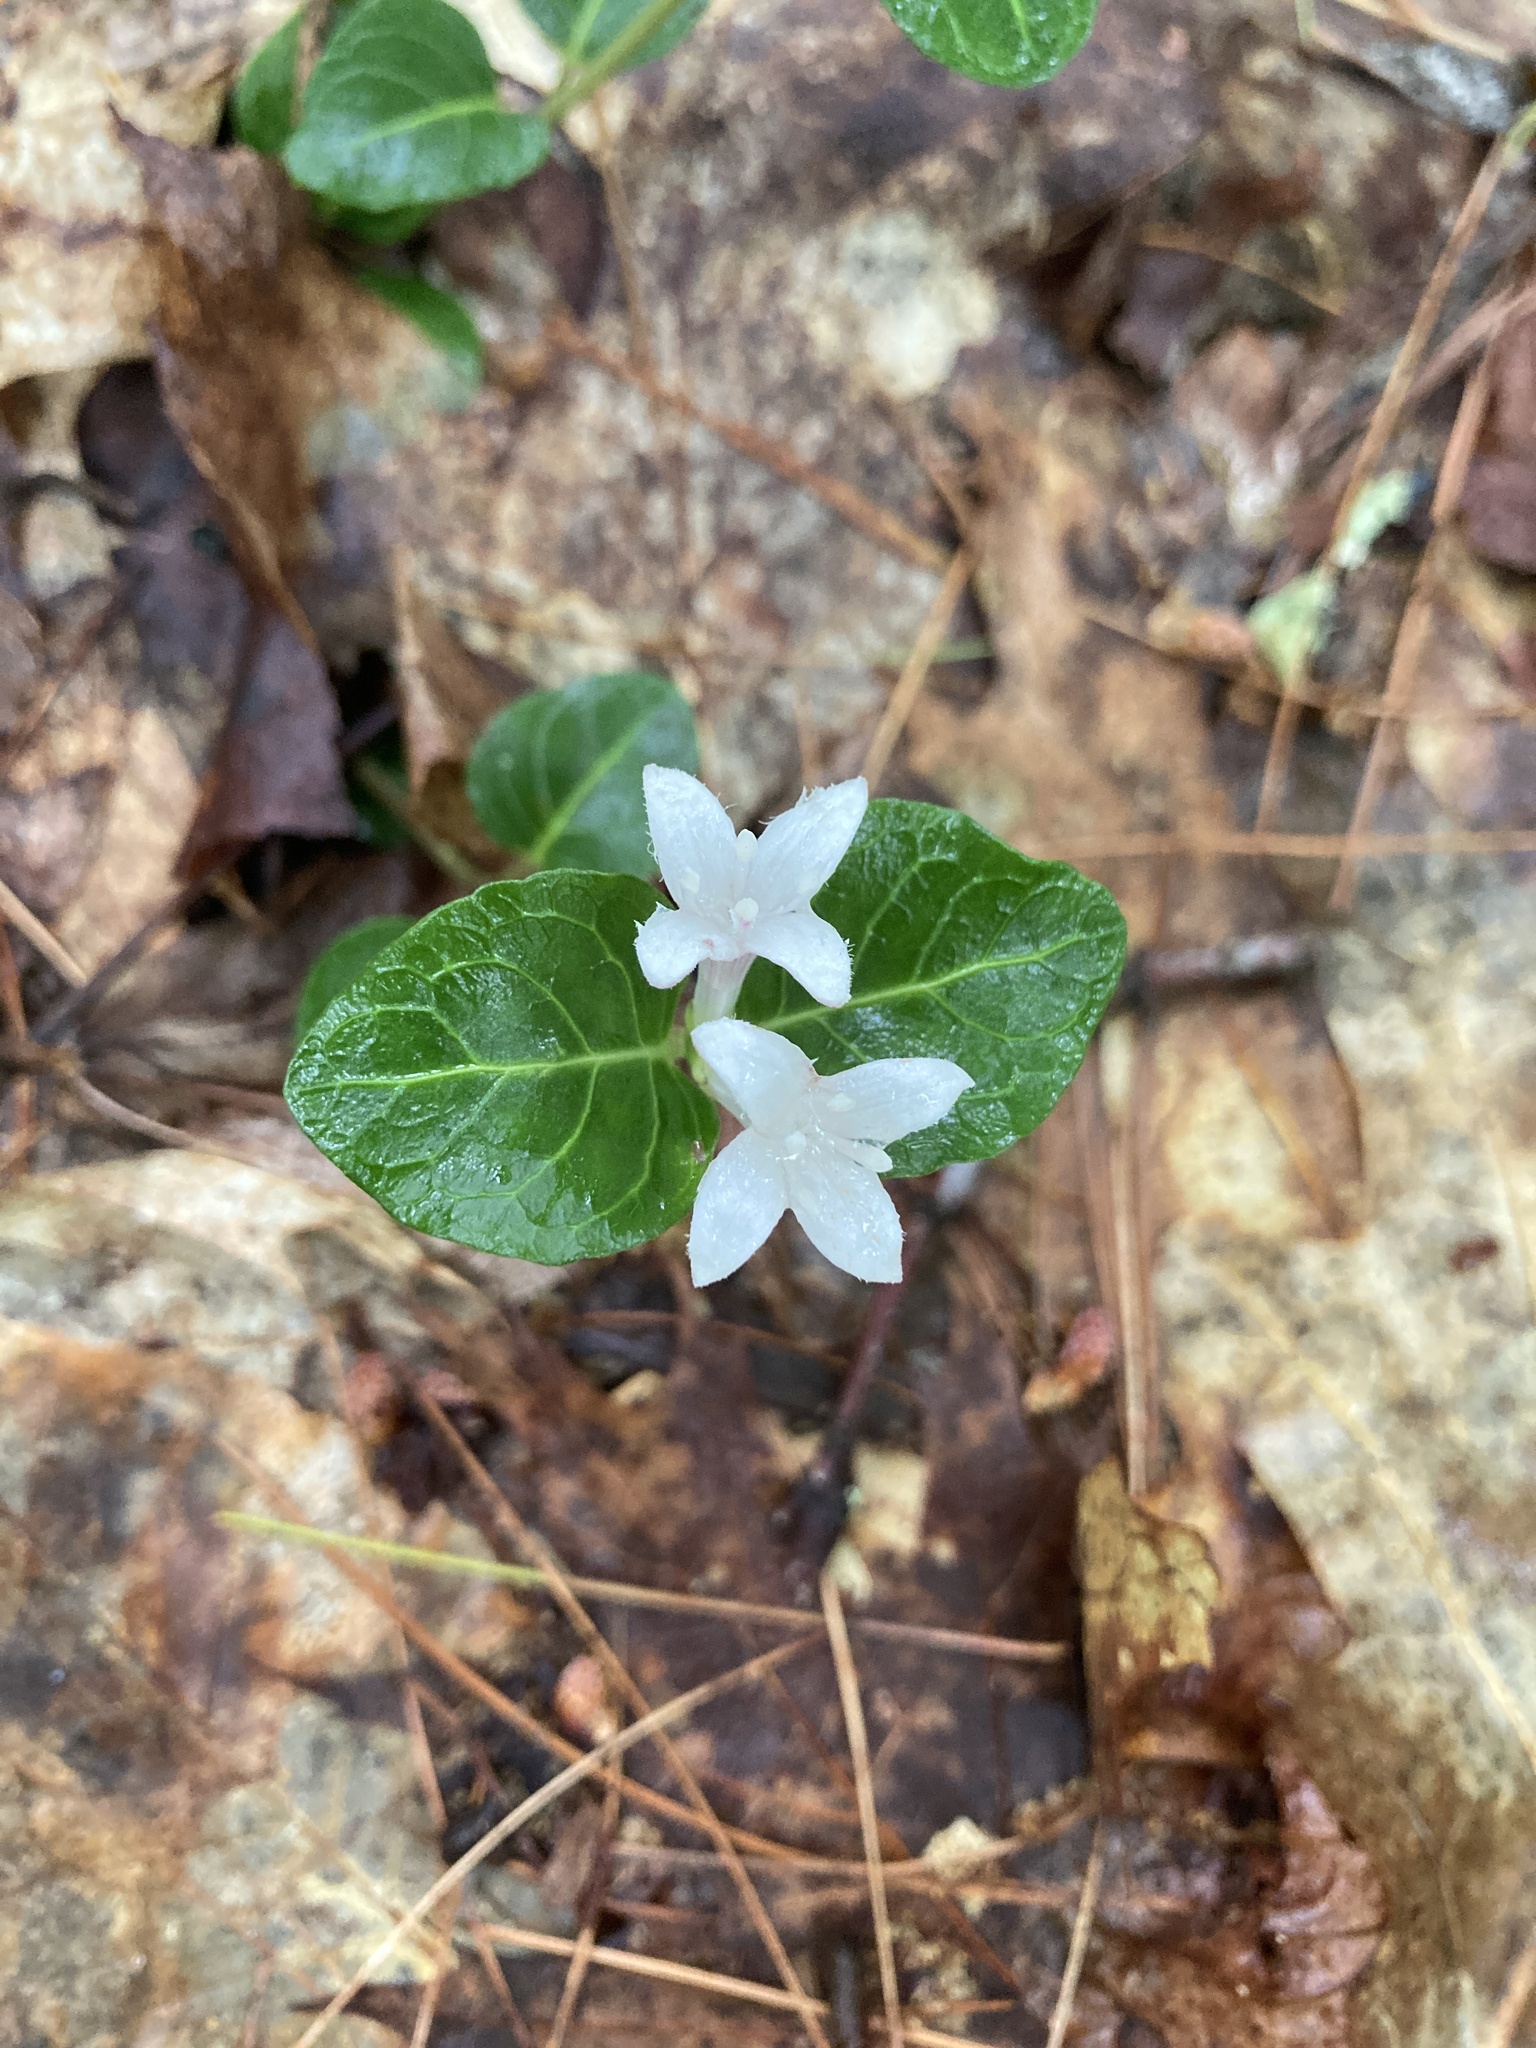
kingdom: Plantae
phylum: Tracheophyta
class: Magnoliopsida
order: Gentianales
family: Rubiaceae
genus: Mitchella
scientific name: Mitchella repens
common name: Partridge-berry
